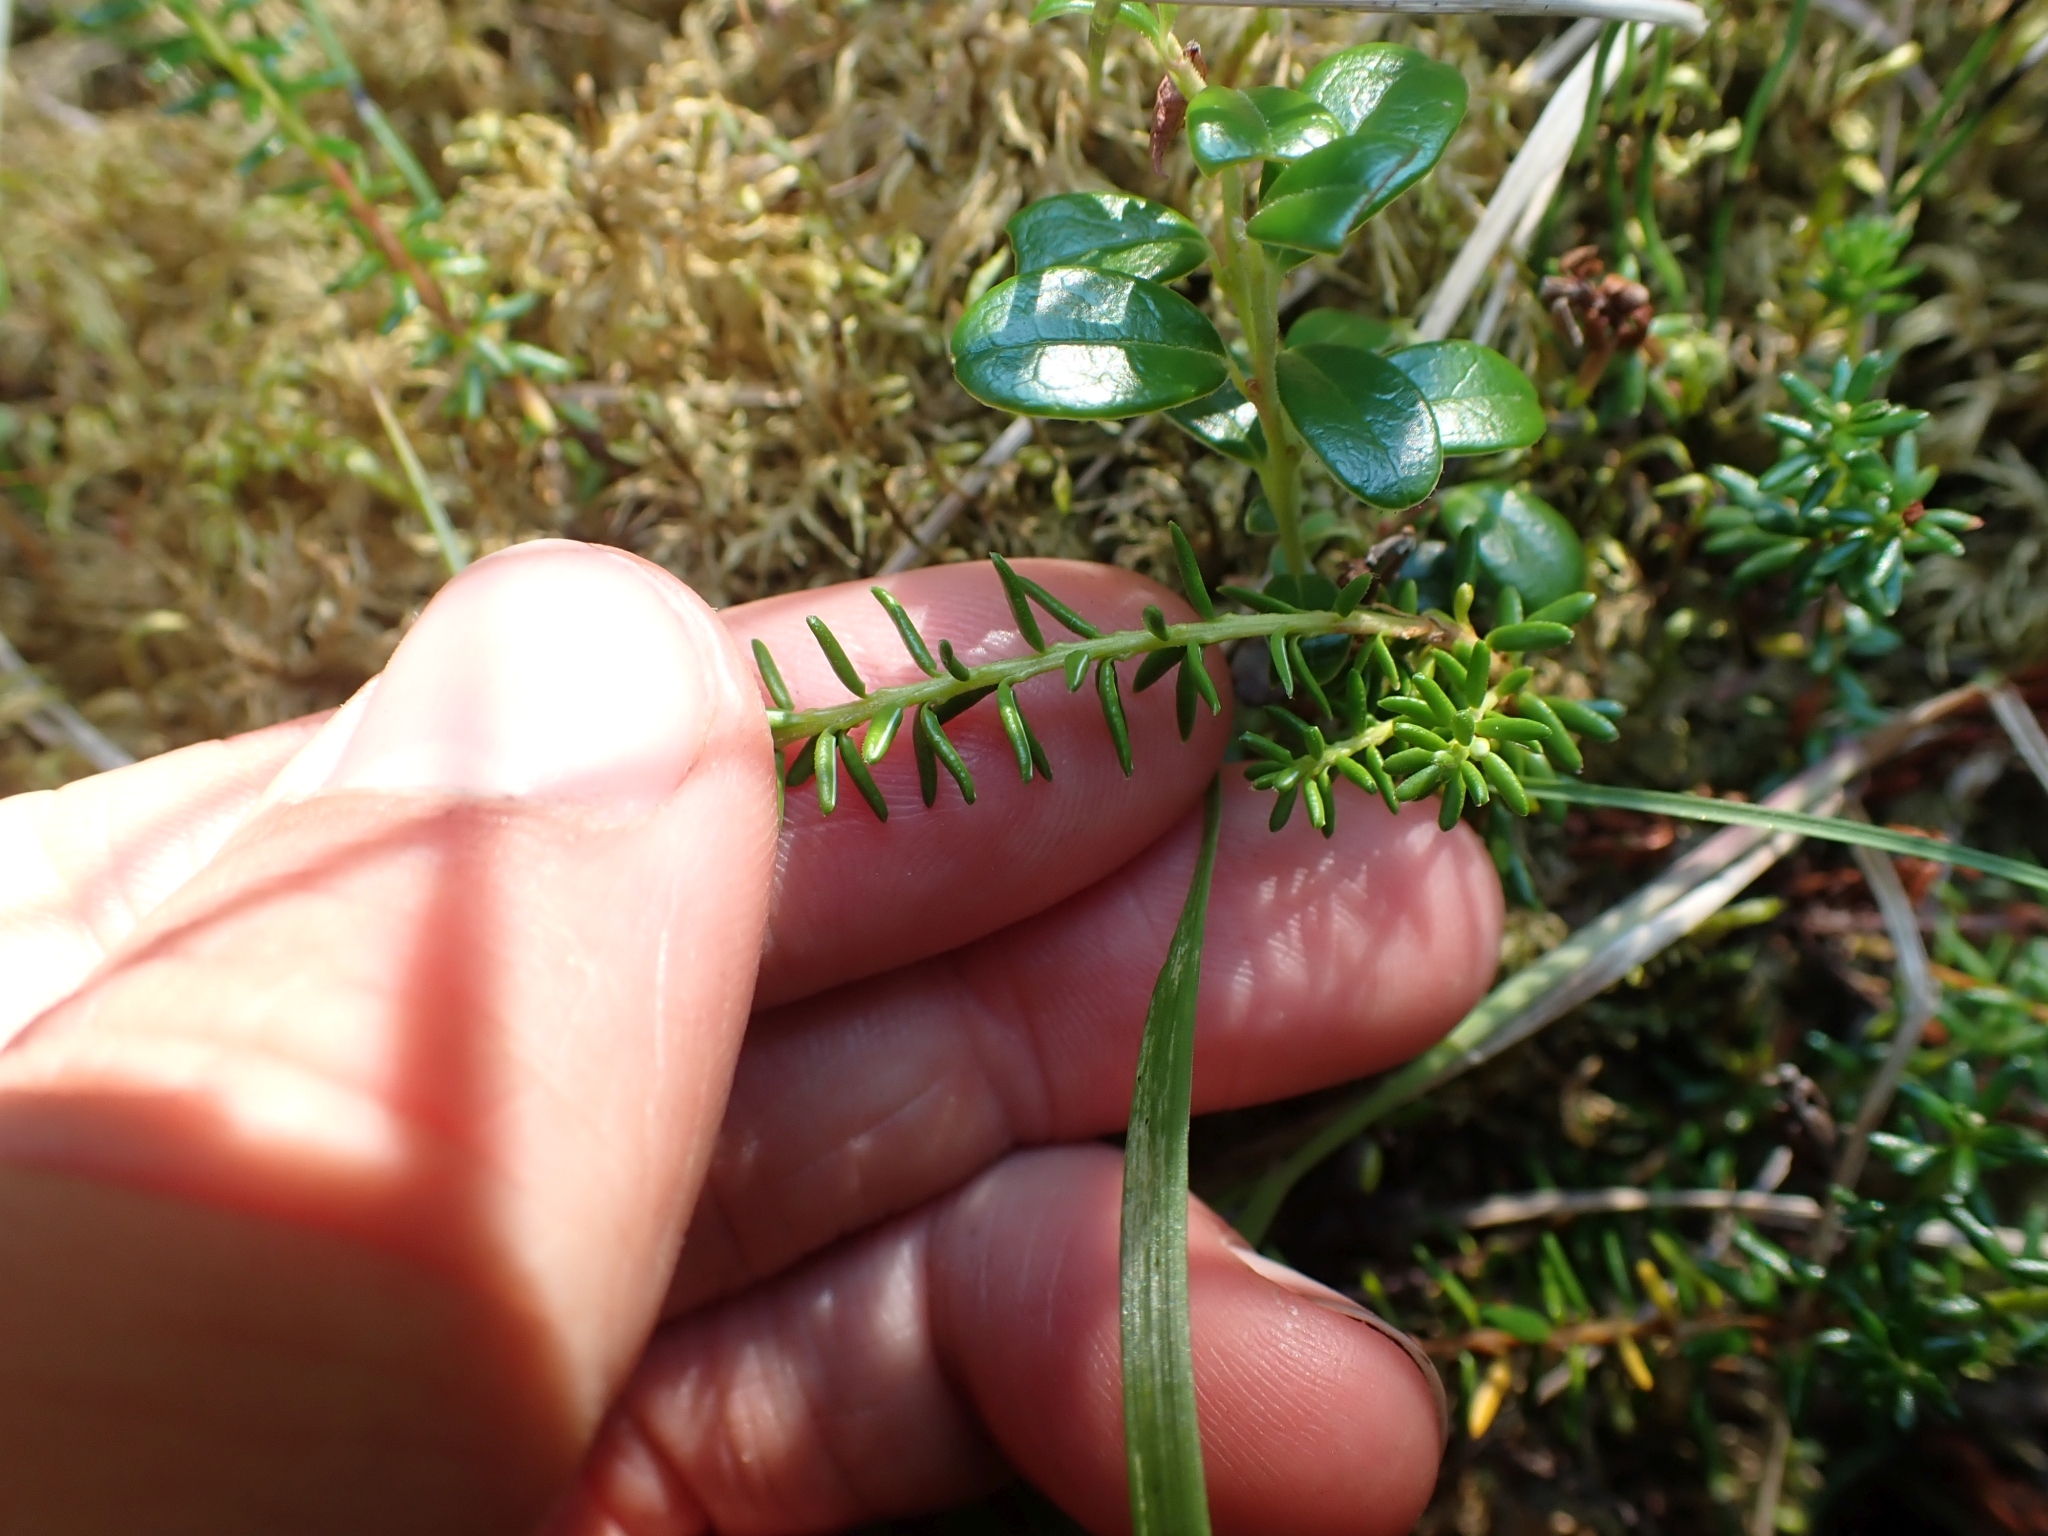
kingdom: Plantae
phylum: Tracheophyta
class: Magnoliopsida
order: Ericales
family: Ericaceae
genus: Empetrum
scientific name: Empetrum nigrum
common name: Black crowberry
